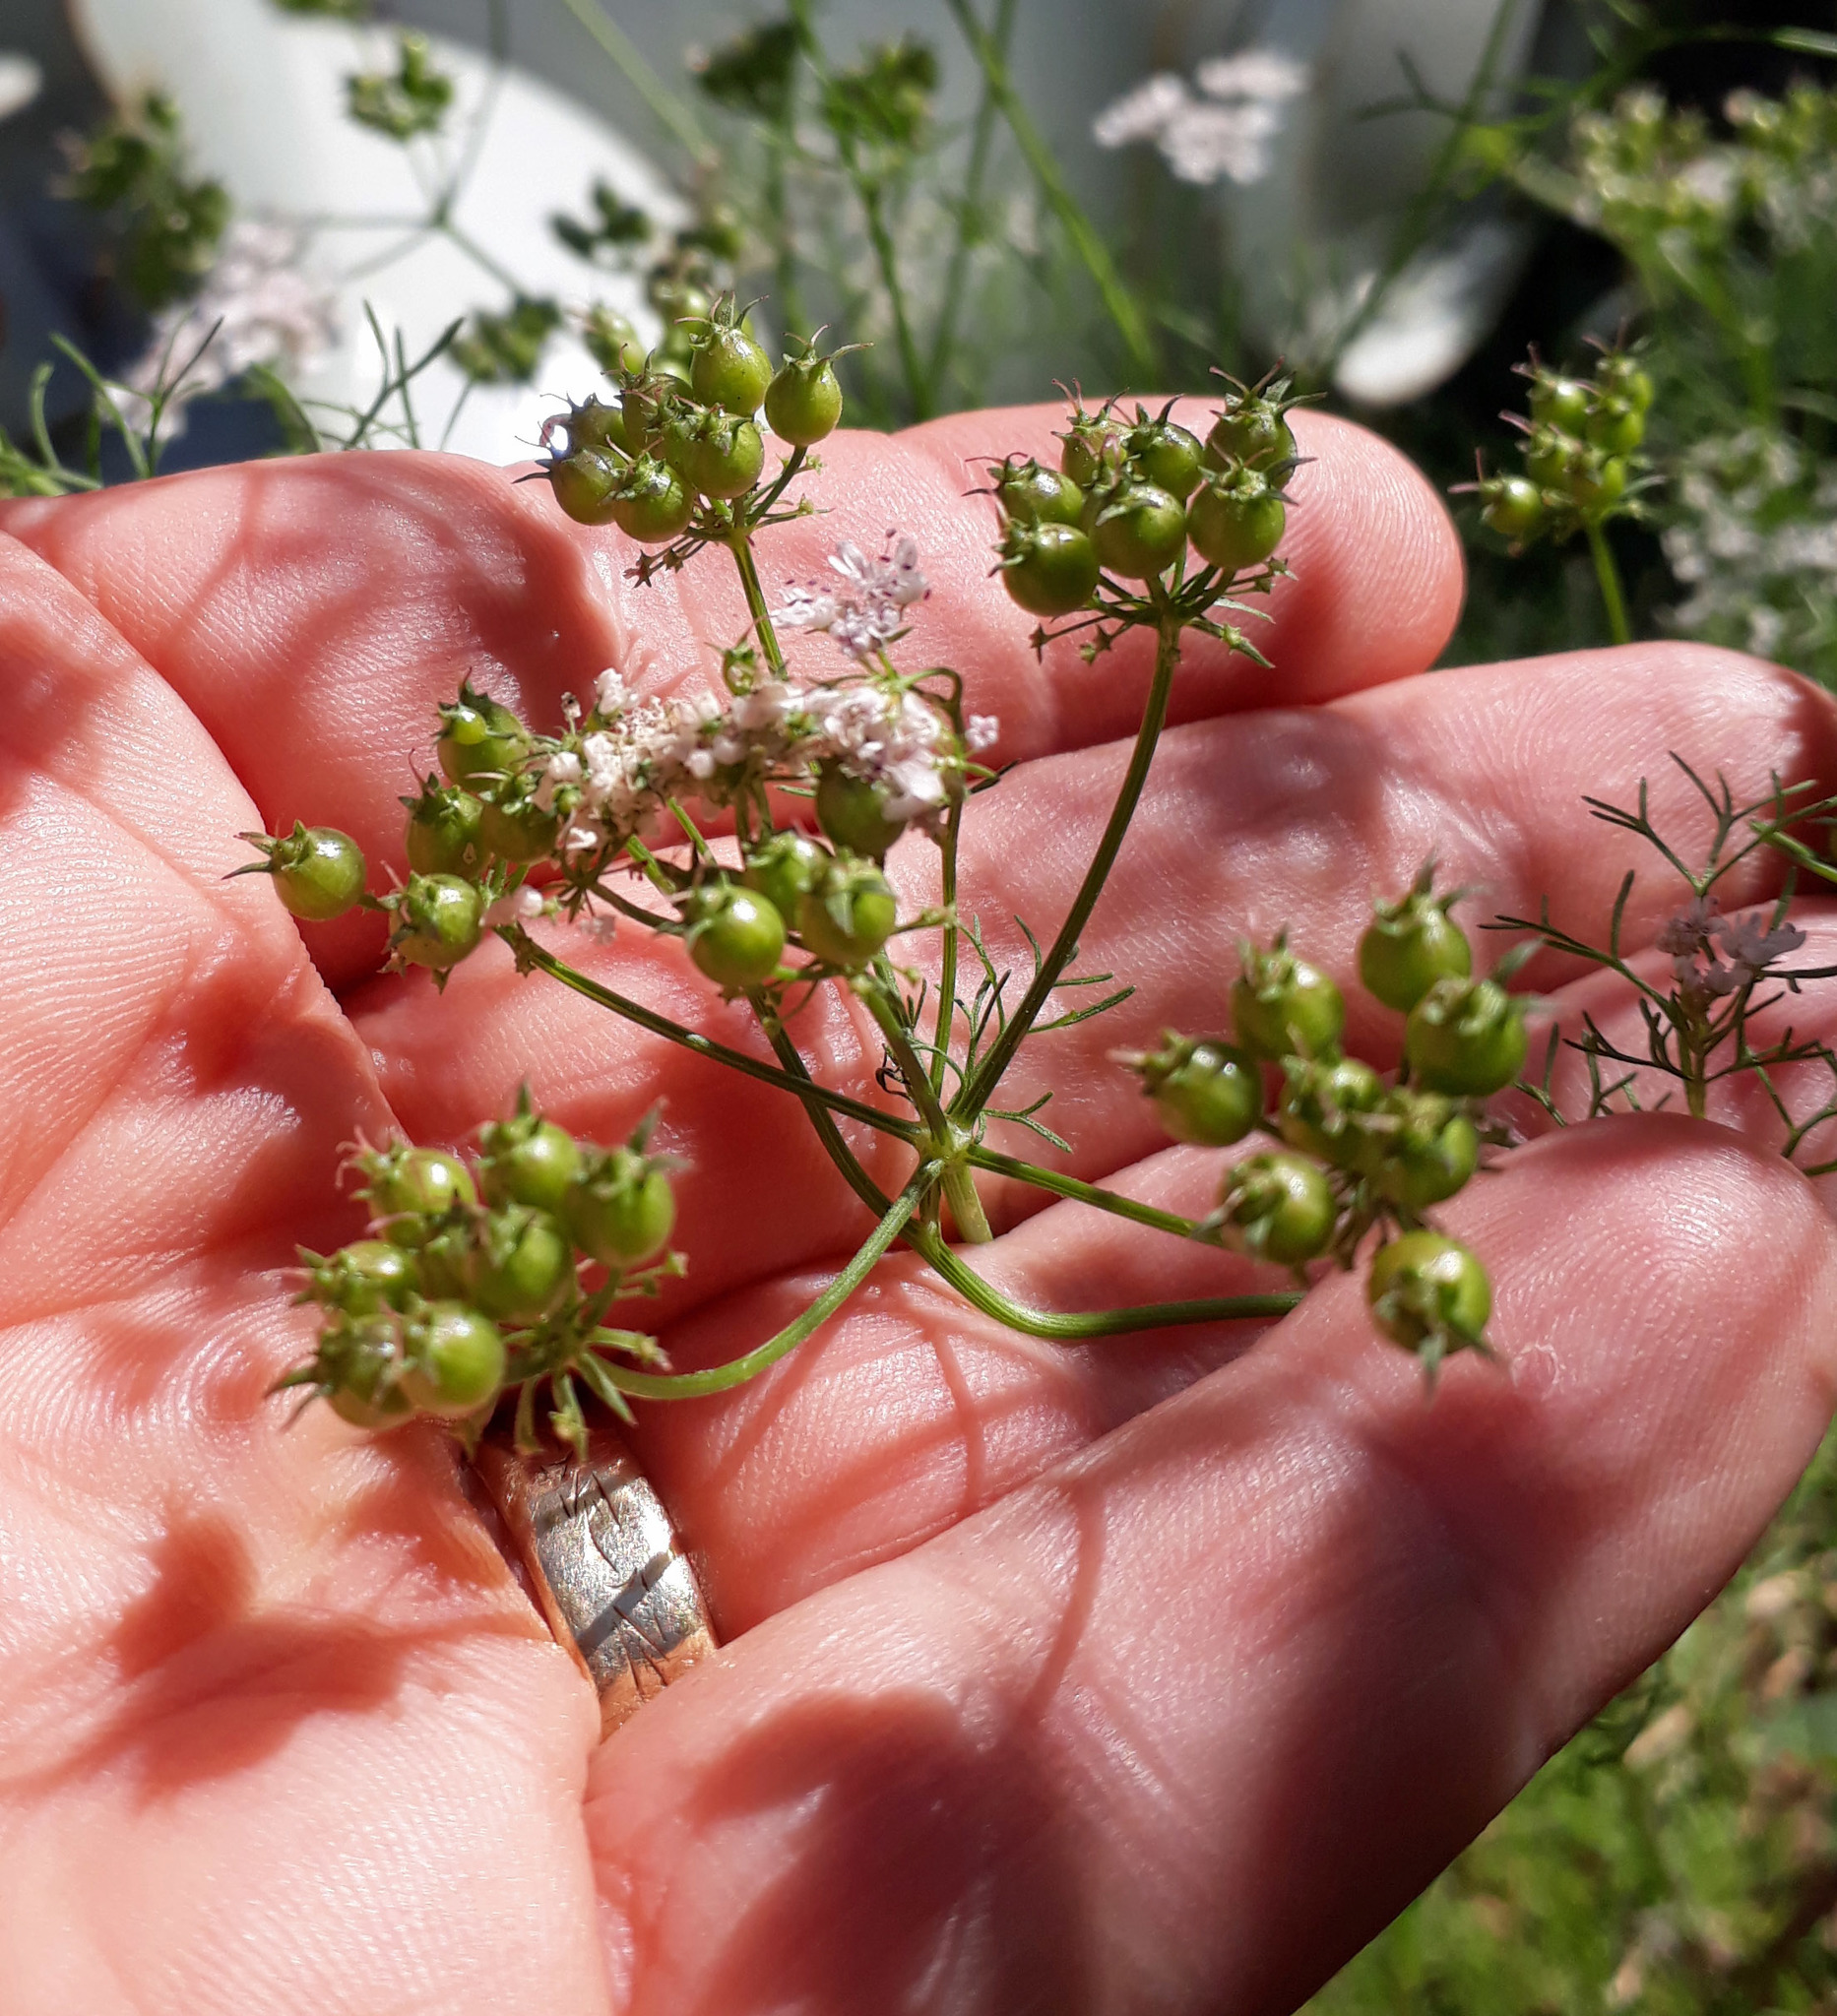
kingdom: Plantae
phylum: Tracheophyta
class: Magnoliopsida
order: Apiales
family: Apiaceae
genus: Coriandrum
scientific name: Coriandrum sativum
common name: Coriander
